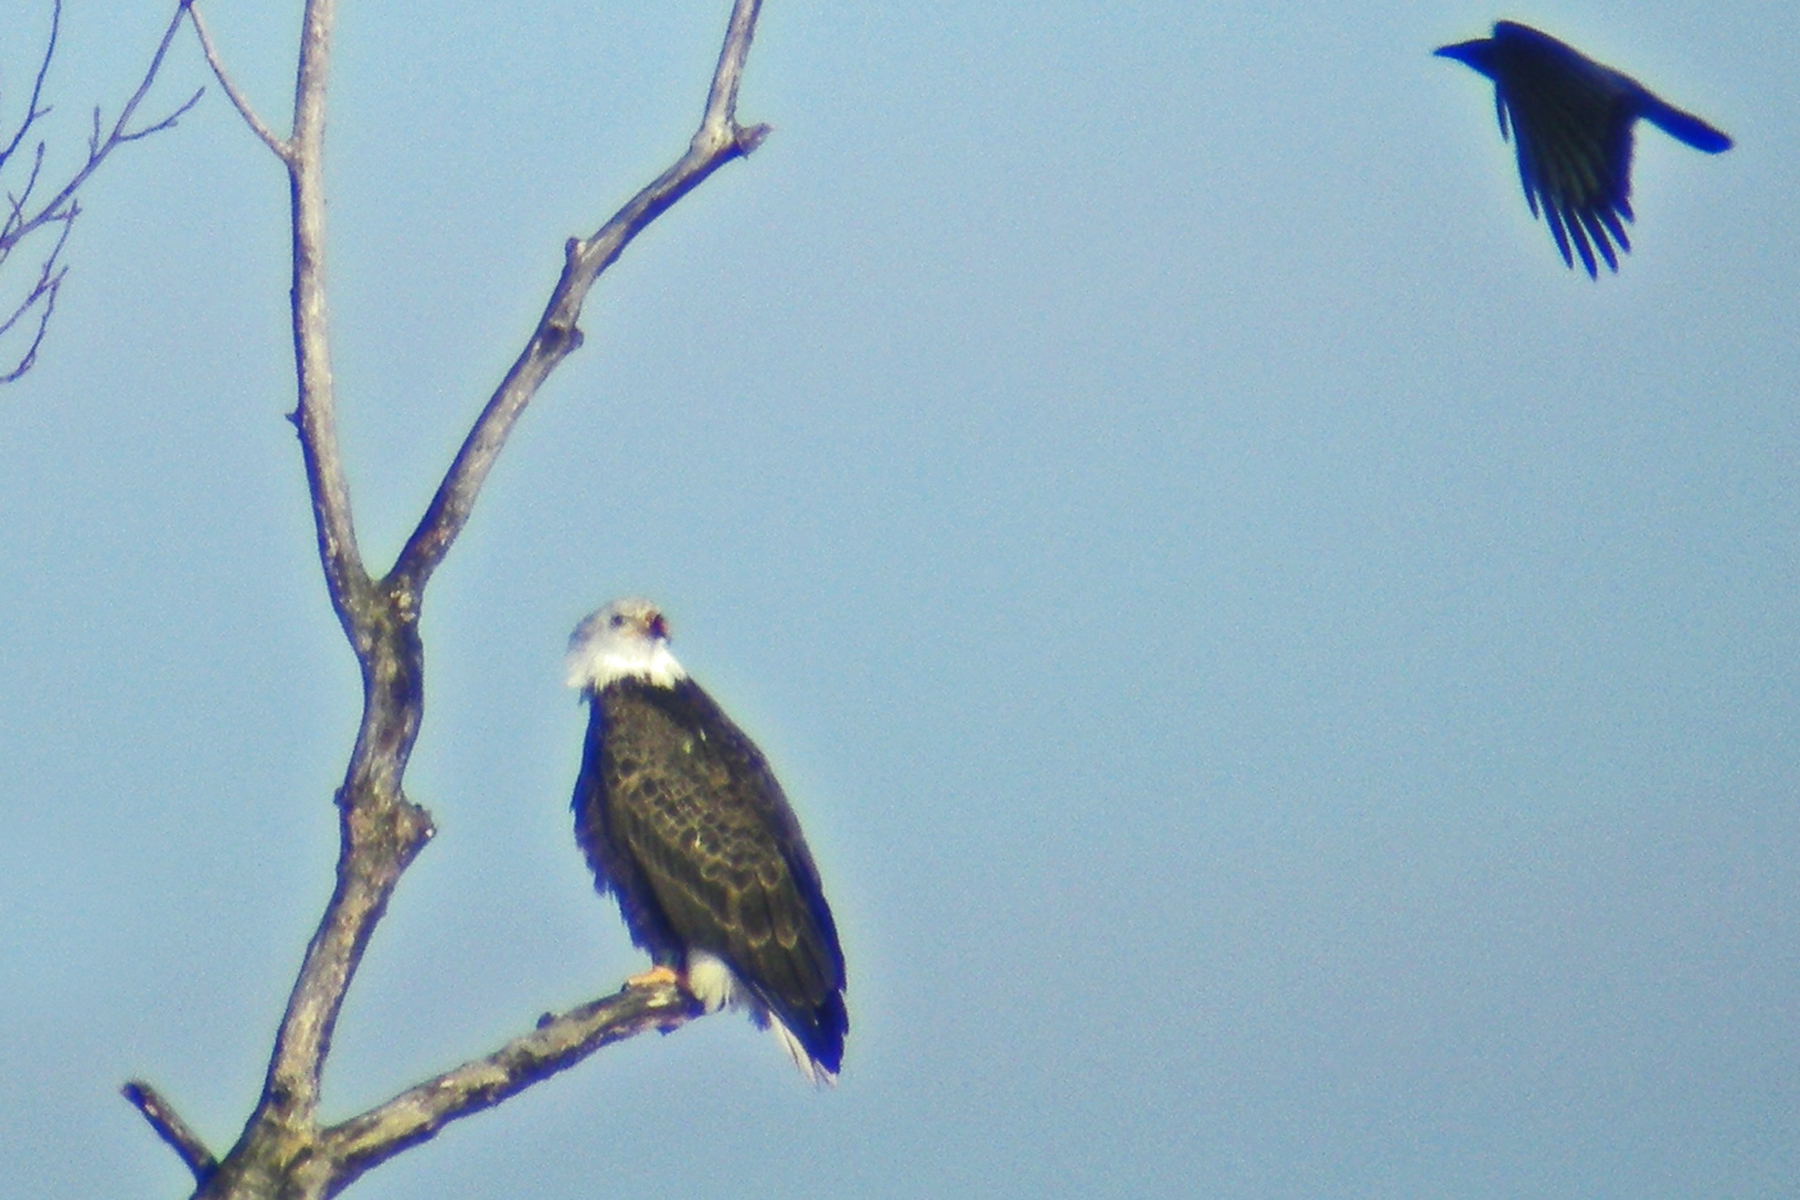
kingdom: Animalia
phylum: Chordata
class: Aves
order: Accipitriformes
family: Accipitridae
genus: Haliaeetus
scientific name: Haliaeetus leucocephalus
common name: Bald eagle
